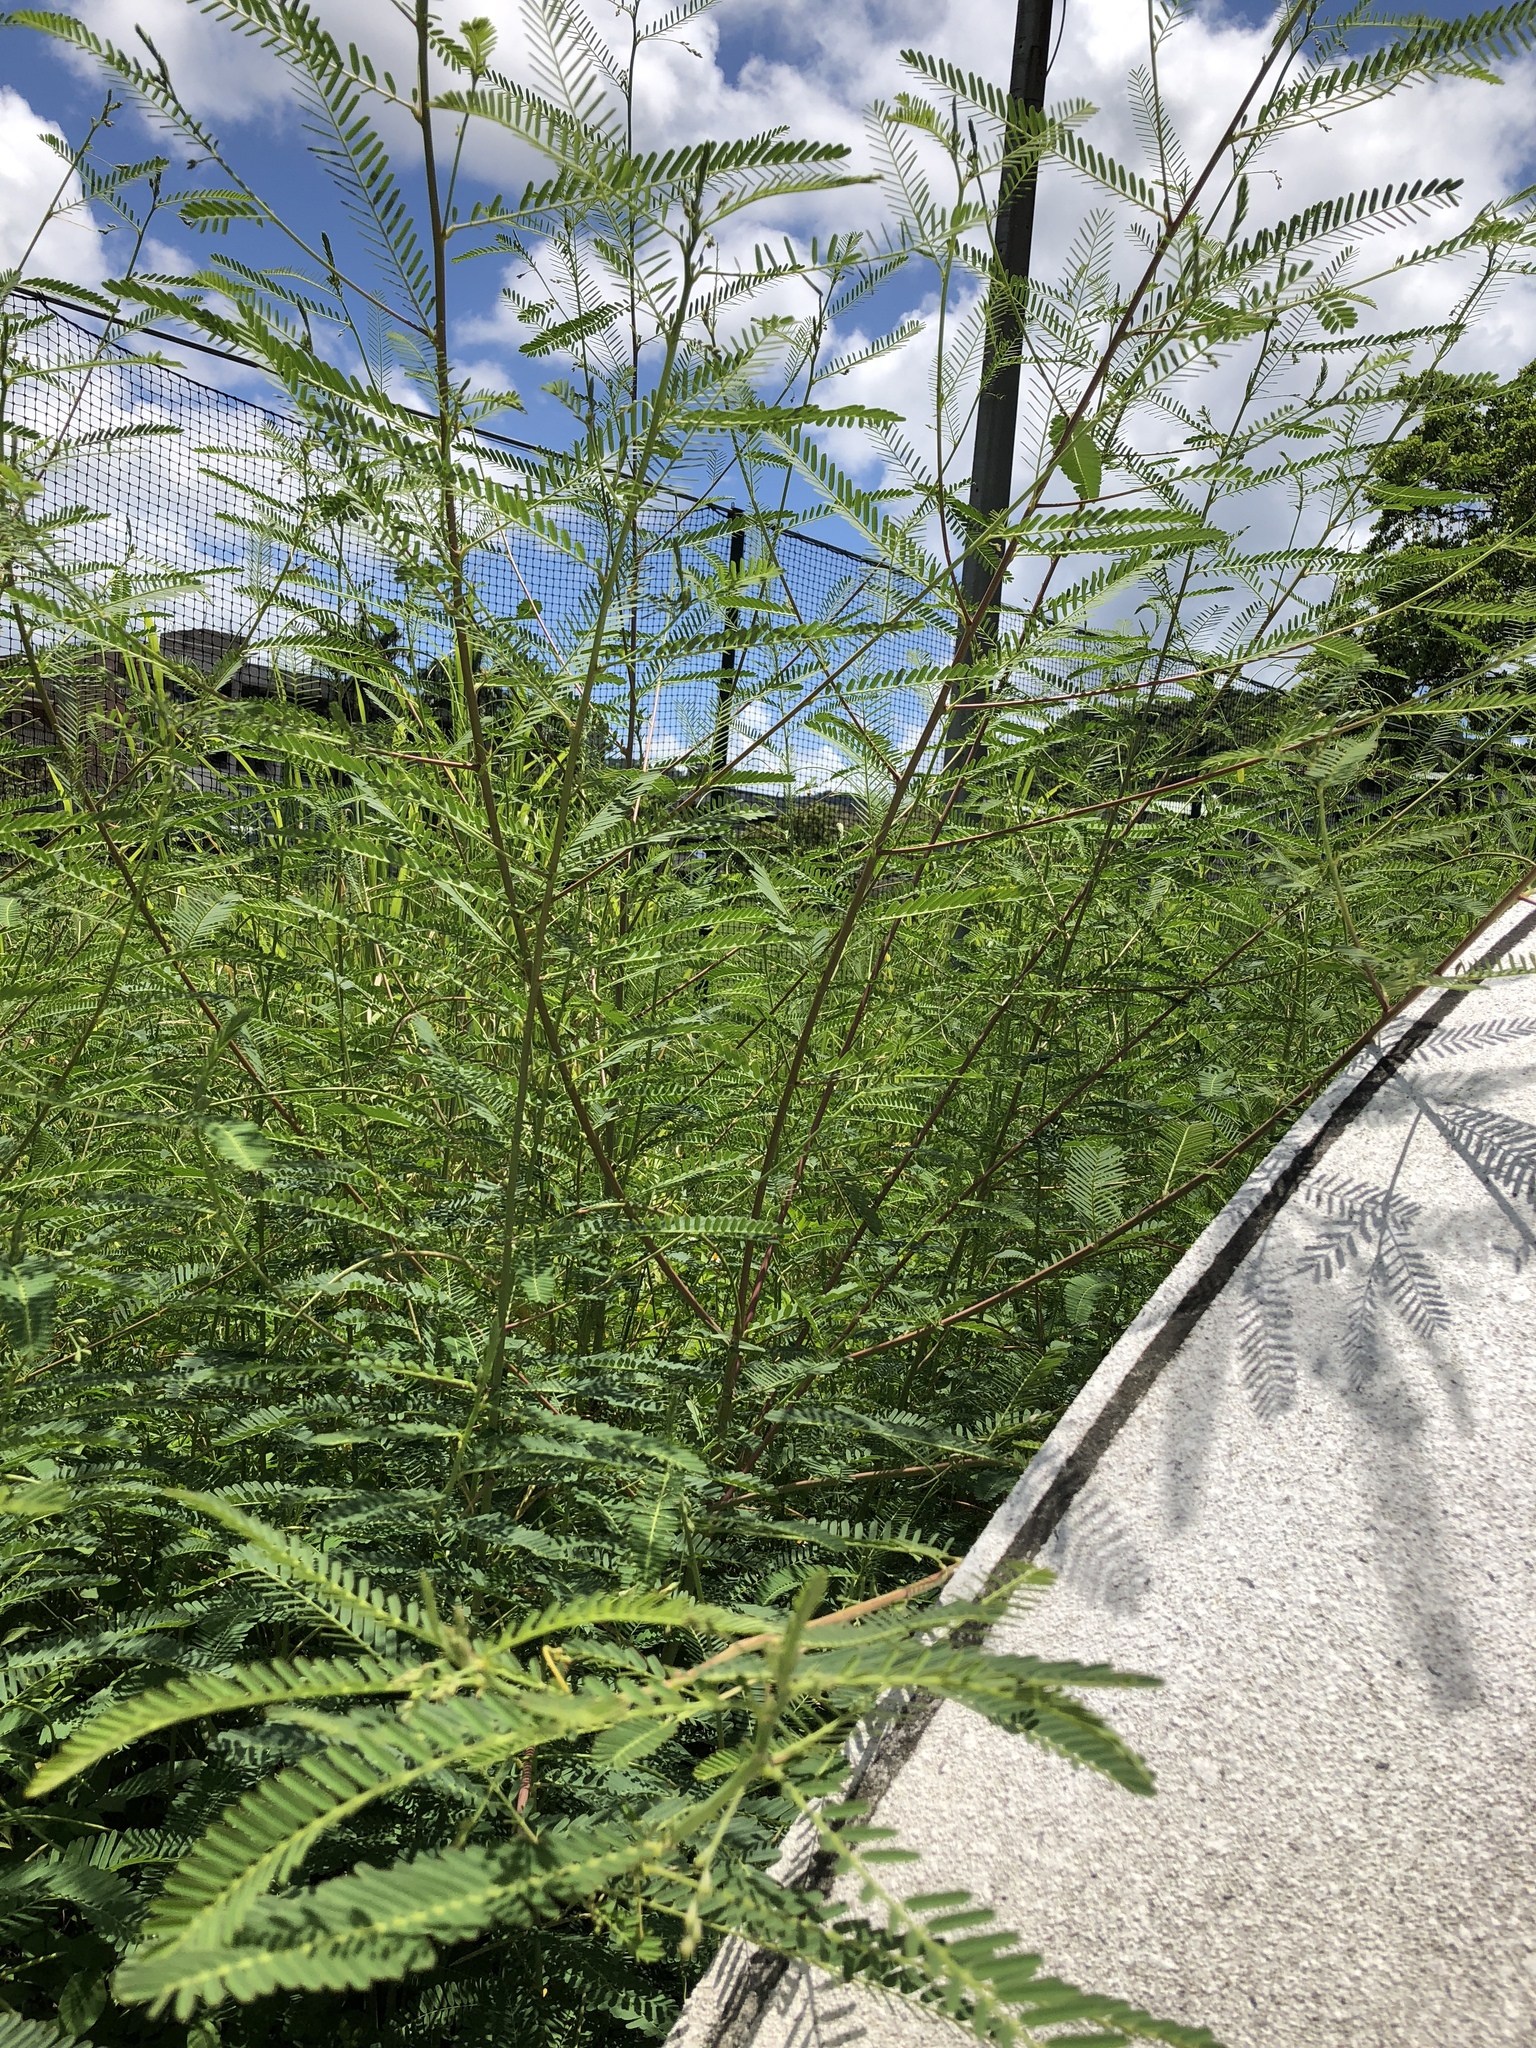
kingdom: Plantae
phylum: Tracheophyta
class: Magnoliopsida
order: Fabales
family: Fabaceae
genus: Sesbania
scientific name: Sesbania cannabina
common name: Canicha
